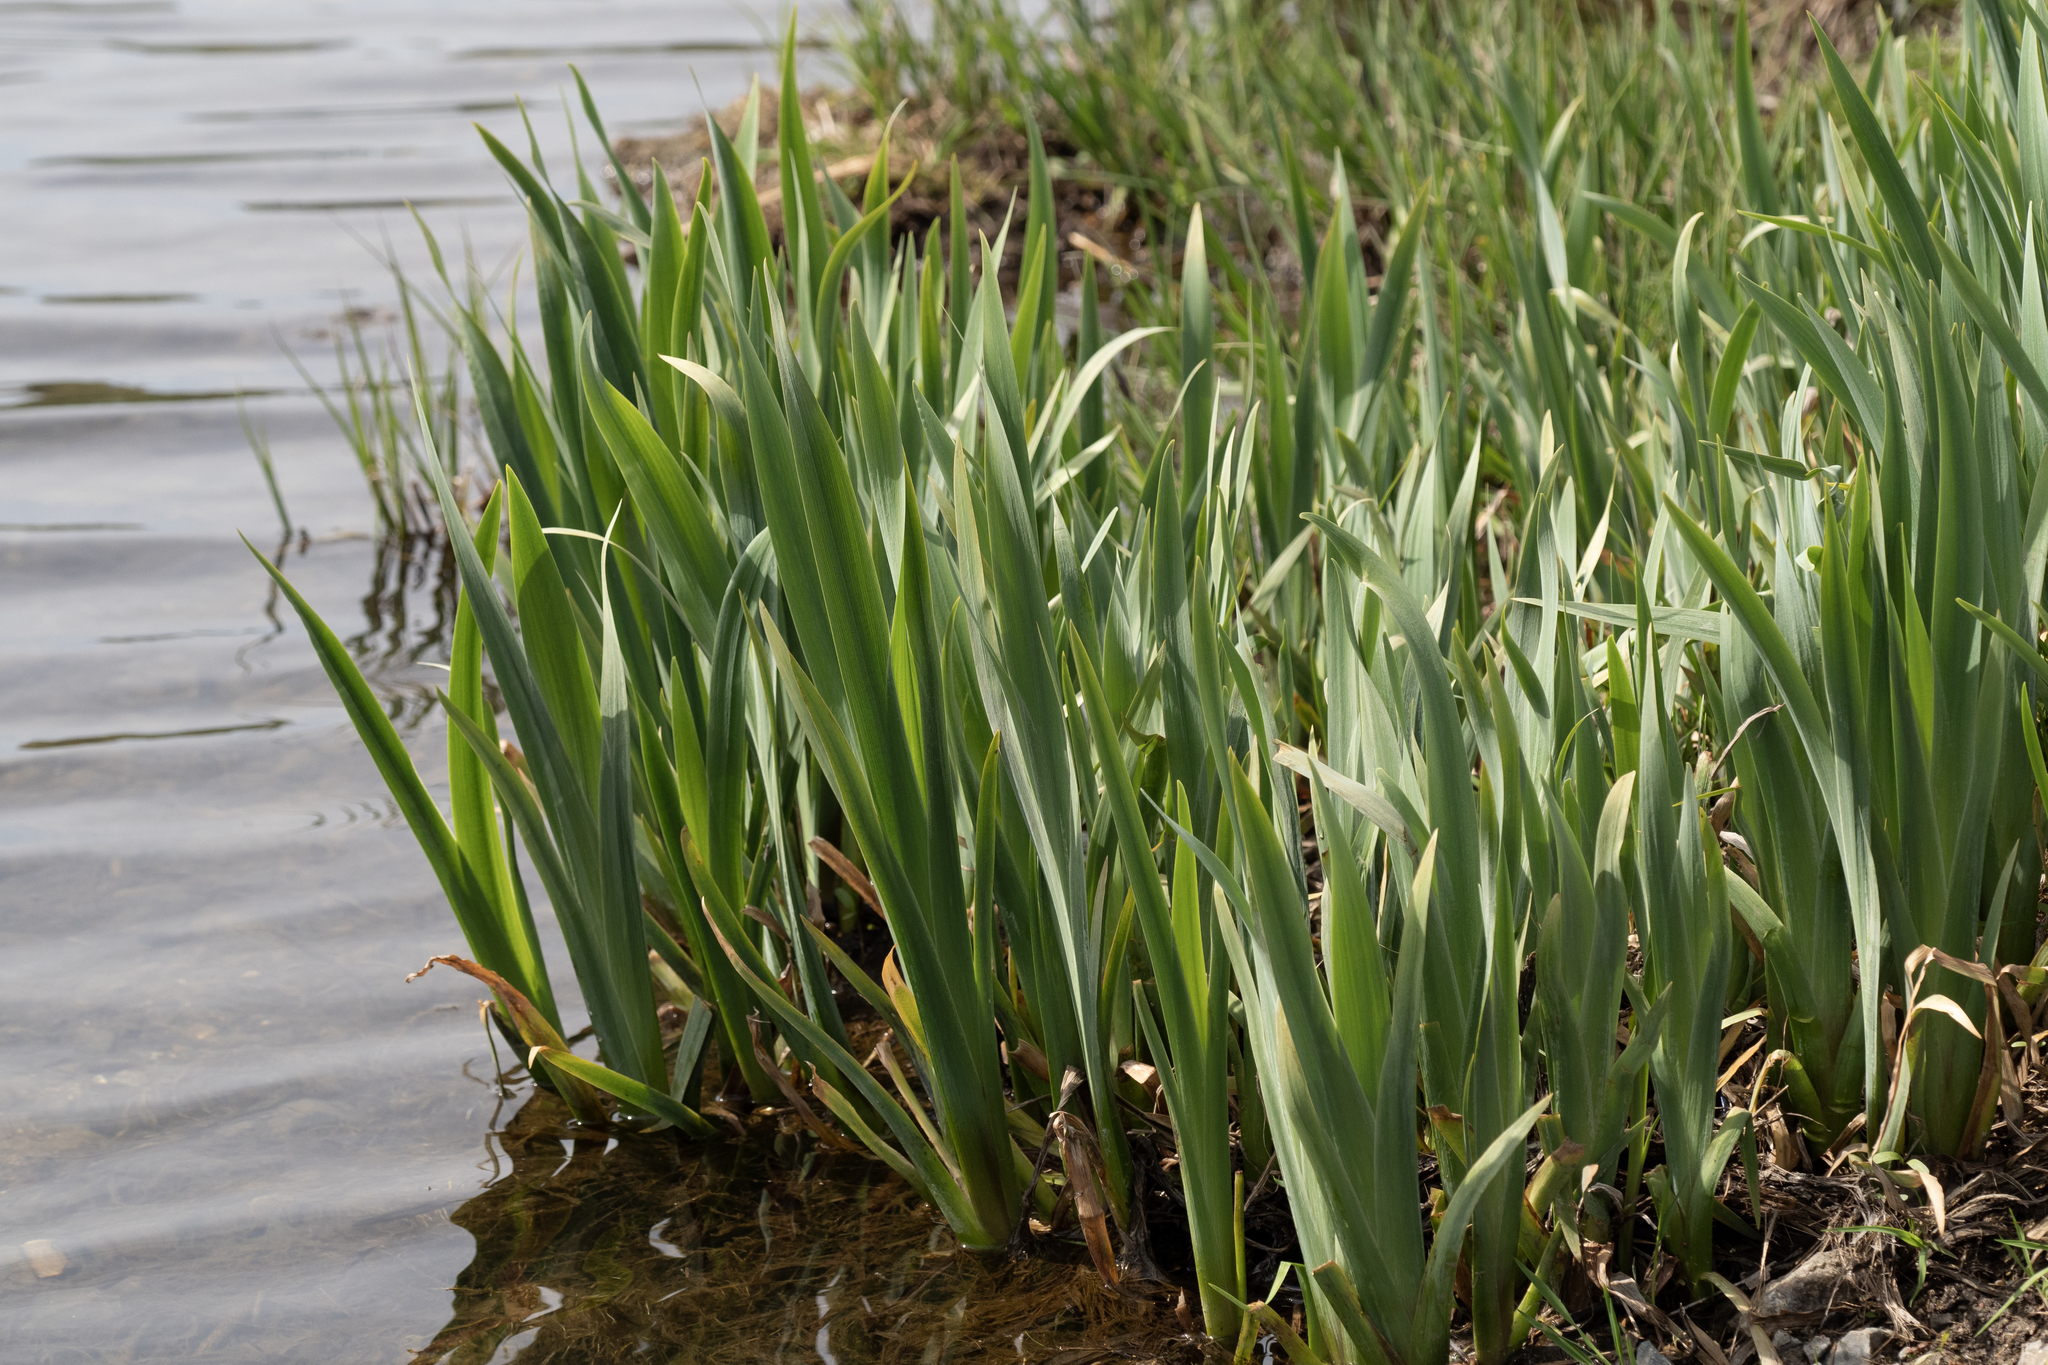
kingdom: Plantae
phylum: Tracheophyta
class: Liliopsida
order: Asparagales
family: Iridaceae
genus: Iris
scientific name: Iris pseudacorus
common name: Yellow flag
